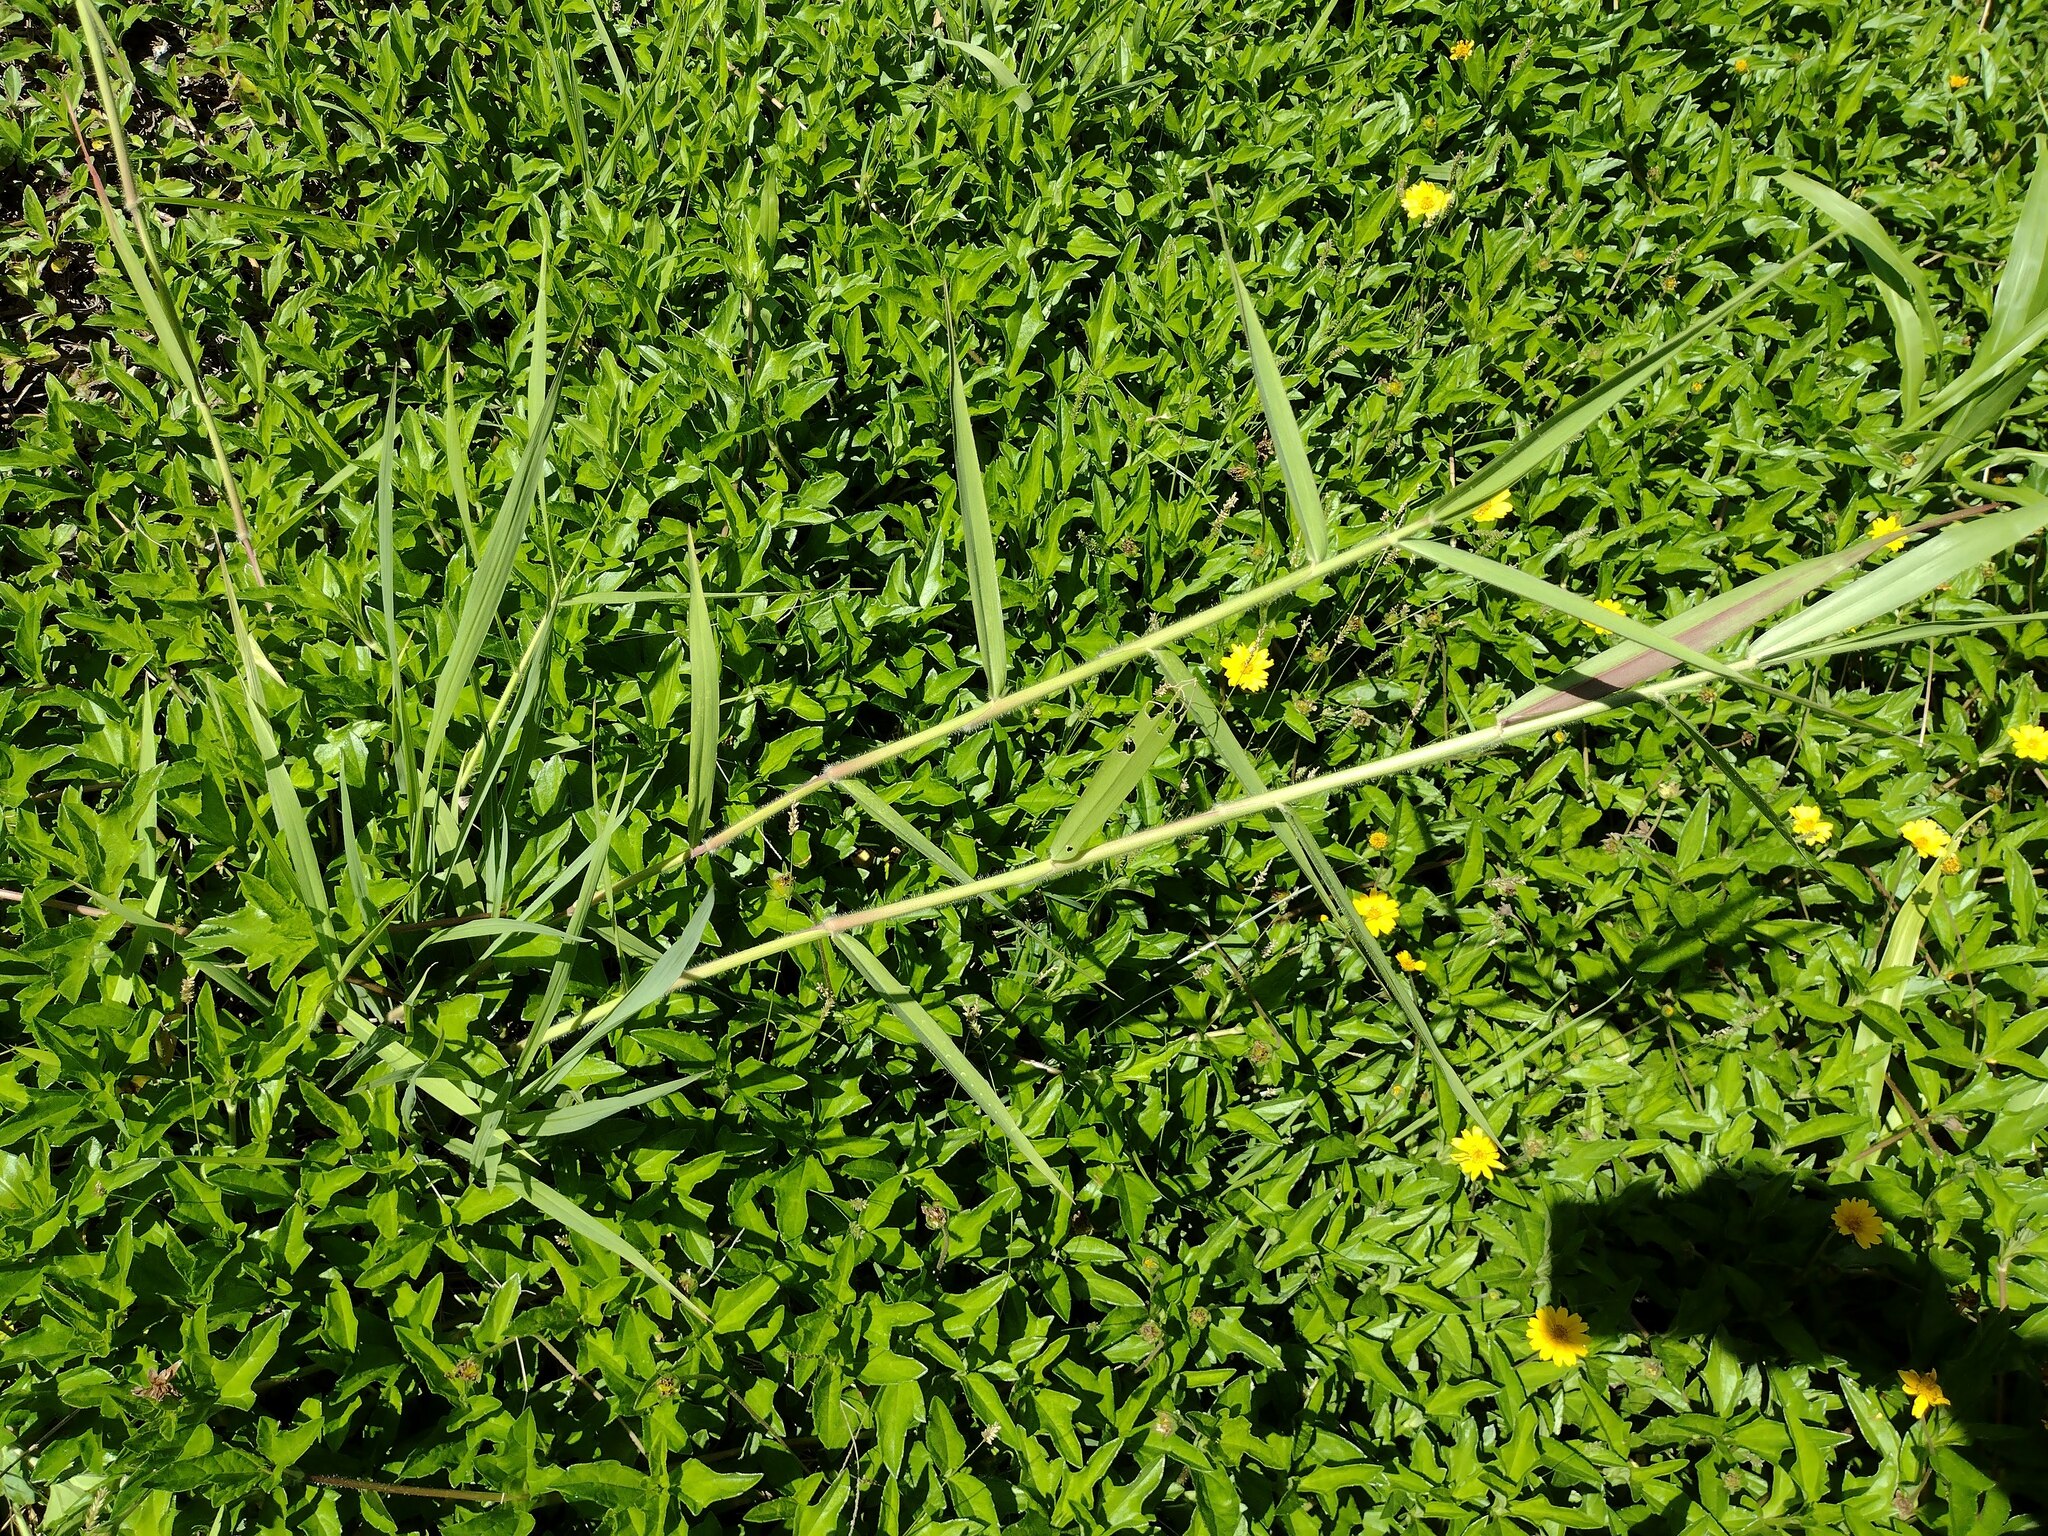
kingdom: Plantae
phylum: Tracheophyta
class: Liliopsida
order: Poales
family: Poaceae
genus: Urochloa
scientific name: Urochloa mutica
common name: Para grass
